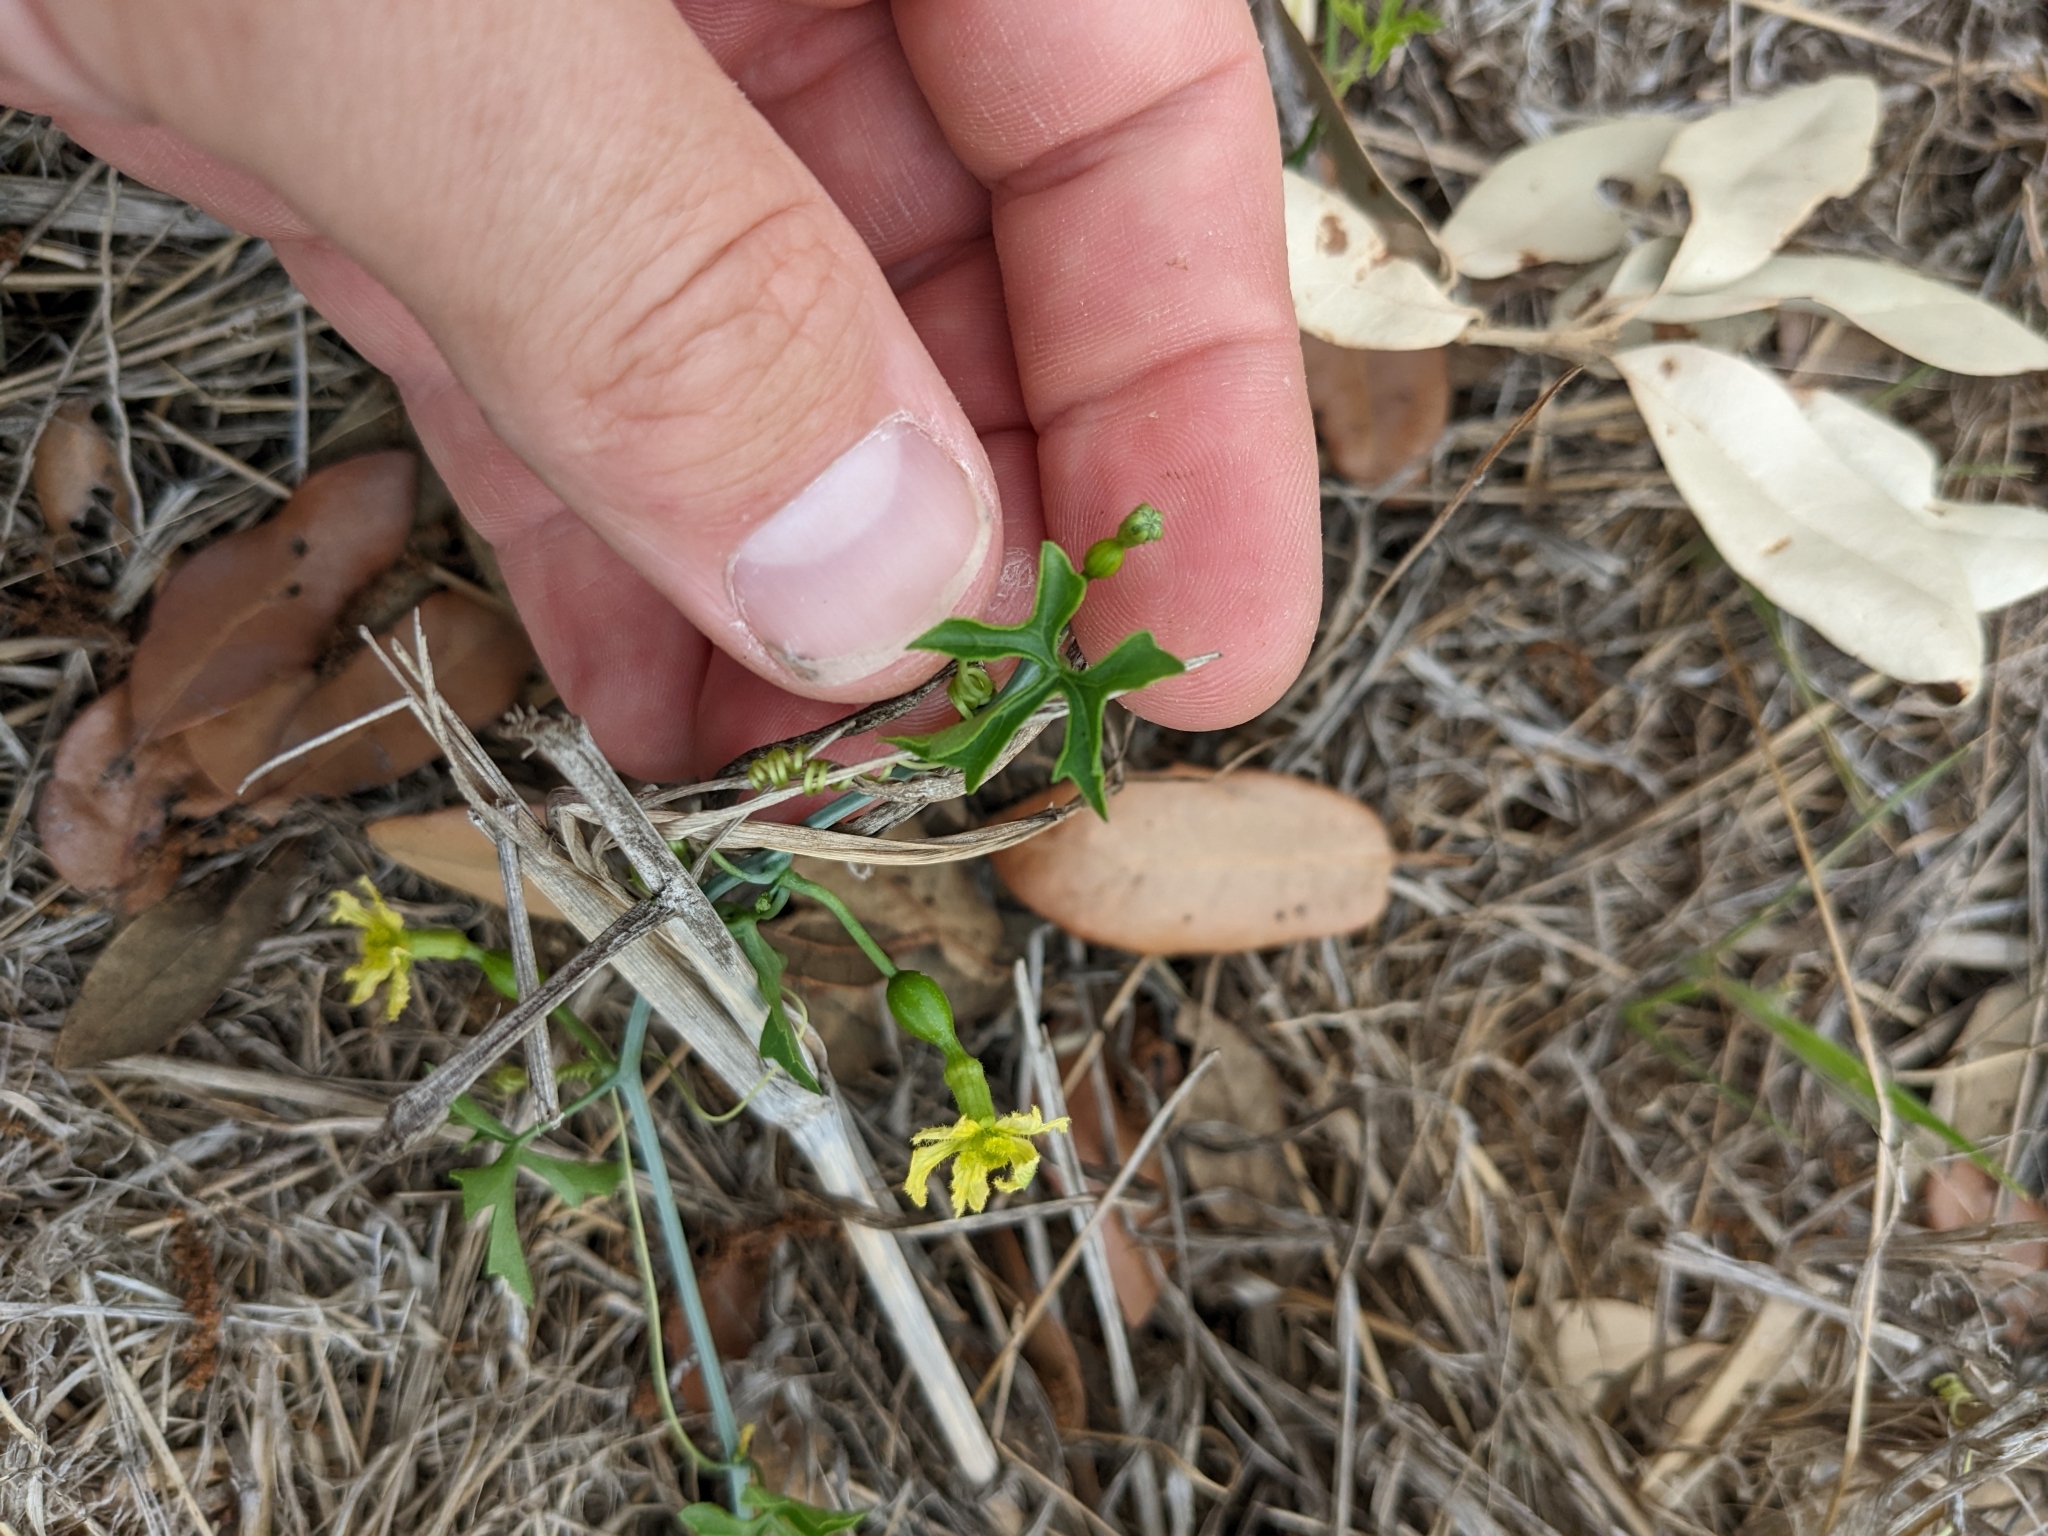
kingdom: Plantae
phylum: Tracheophyta
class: Magnoliopsida
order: Cucurbitales
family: Cucurbitaceae
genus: Ibervillea
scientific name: Ibervillea lindheimeri
